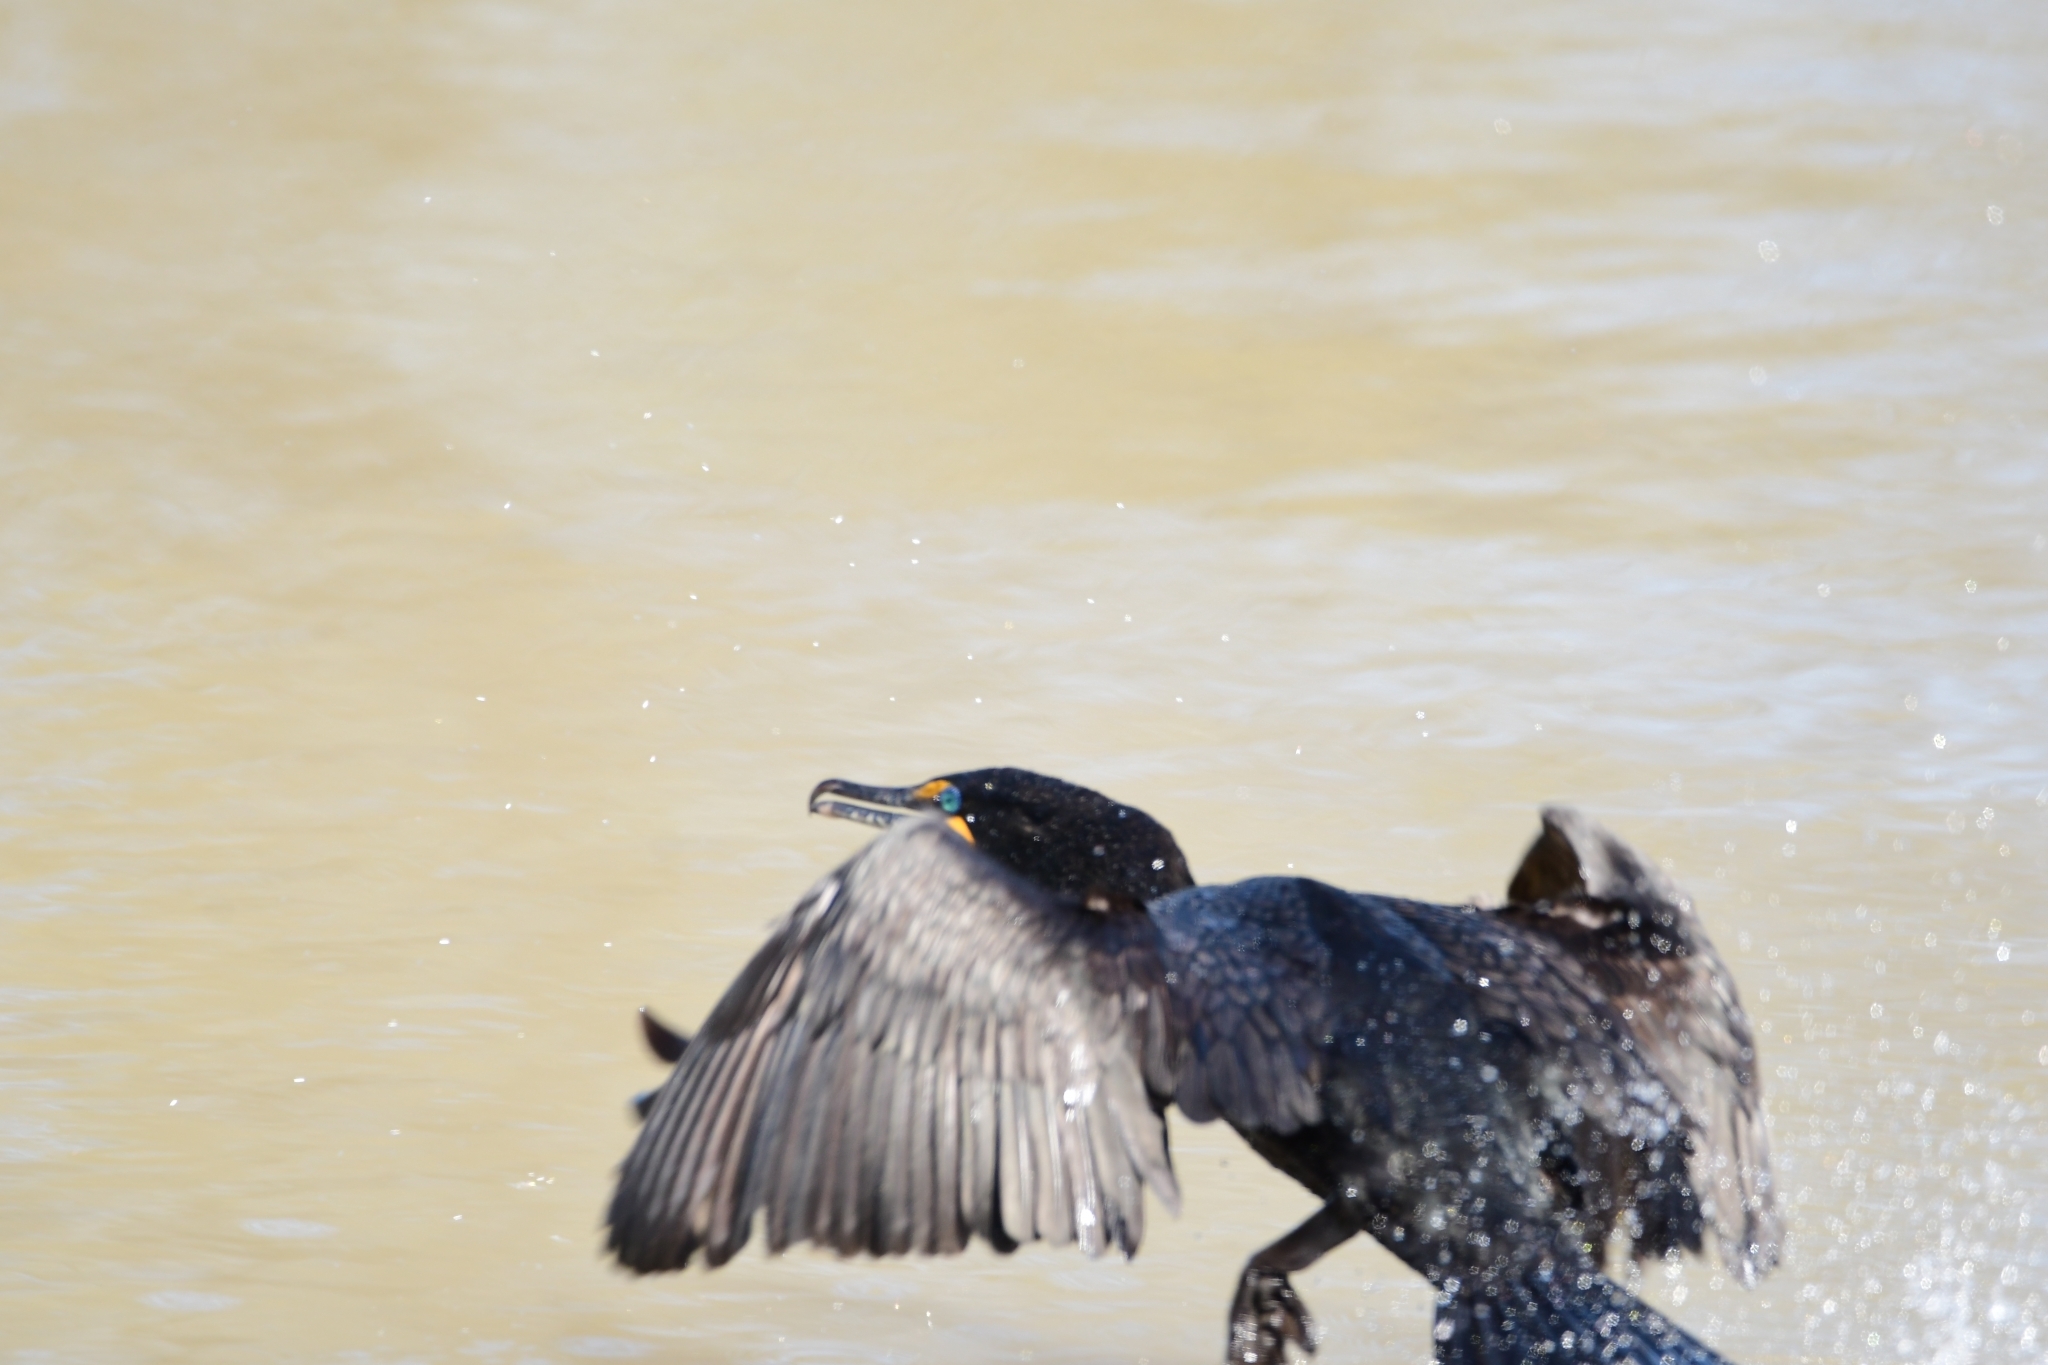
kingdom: Animalia
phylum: Chordata
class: Aves
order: Suliformes
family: Phalacrocoracidae
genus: Phalacrocorax
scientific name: Phalacrocorax auritus
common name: Double-crested cormorant
